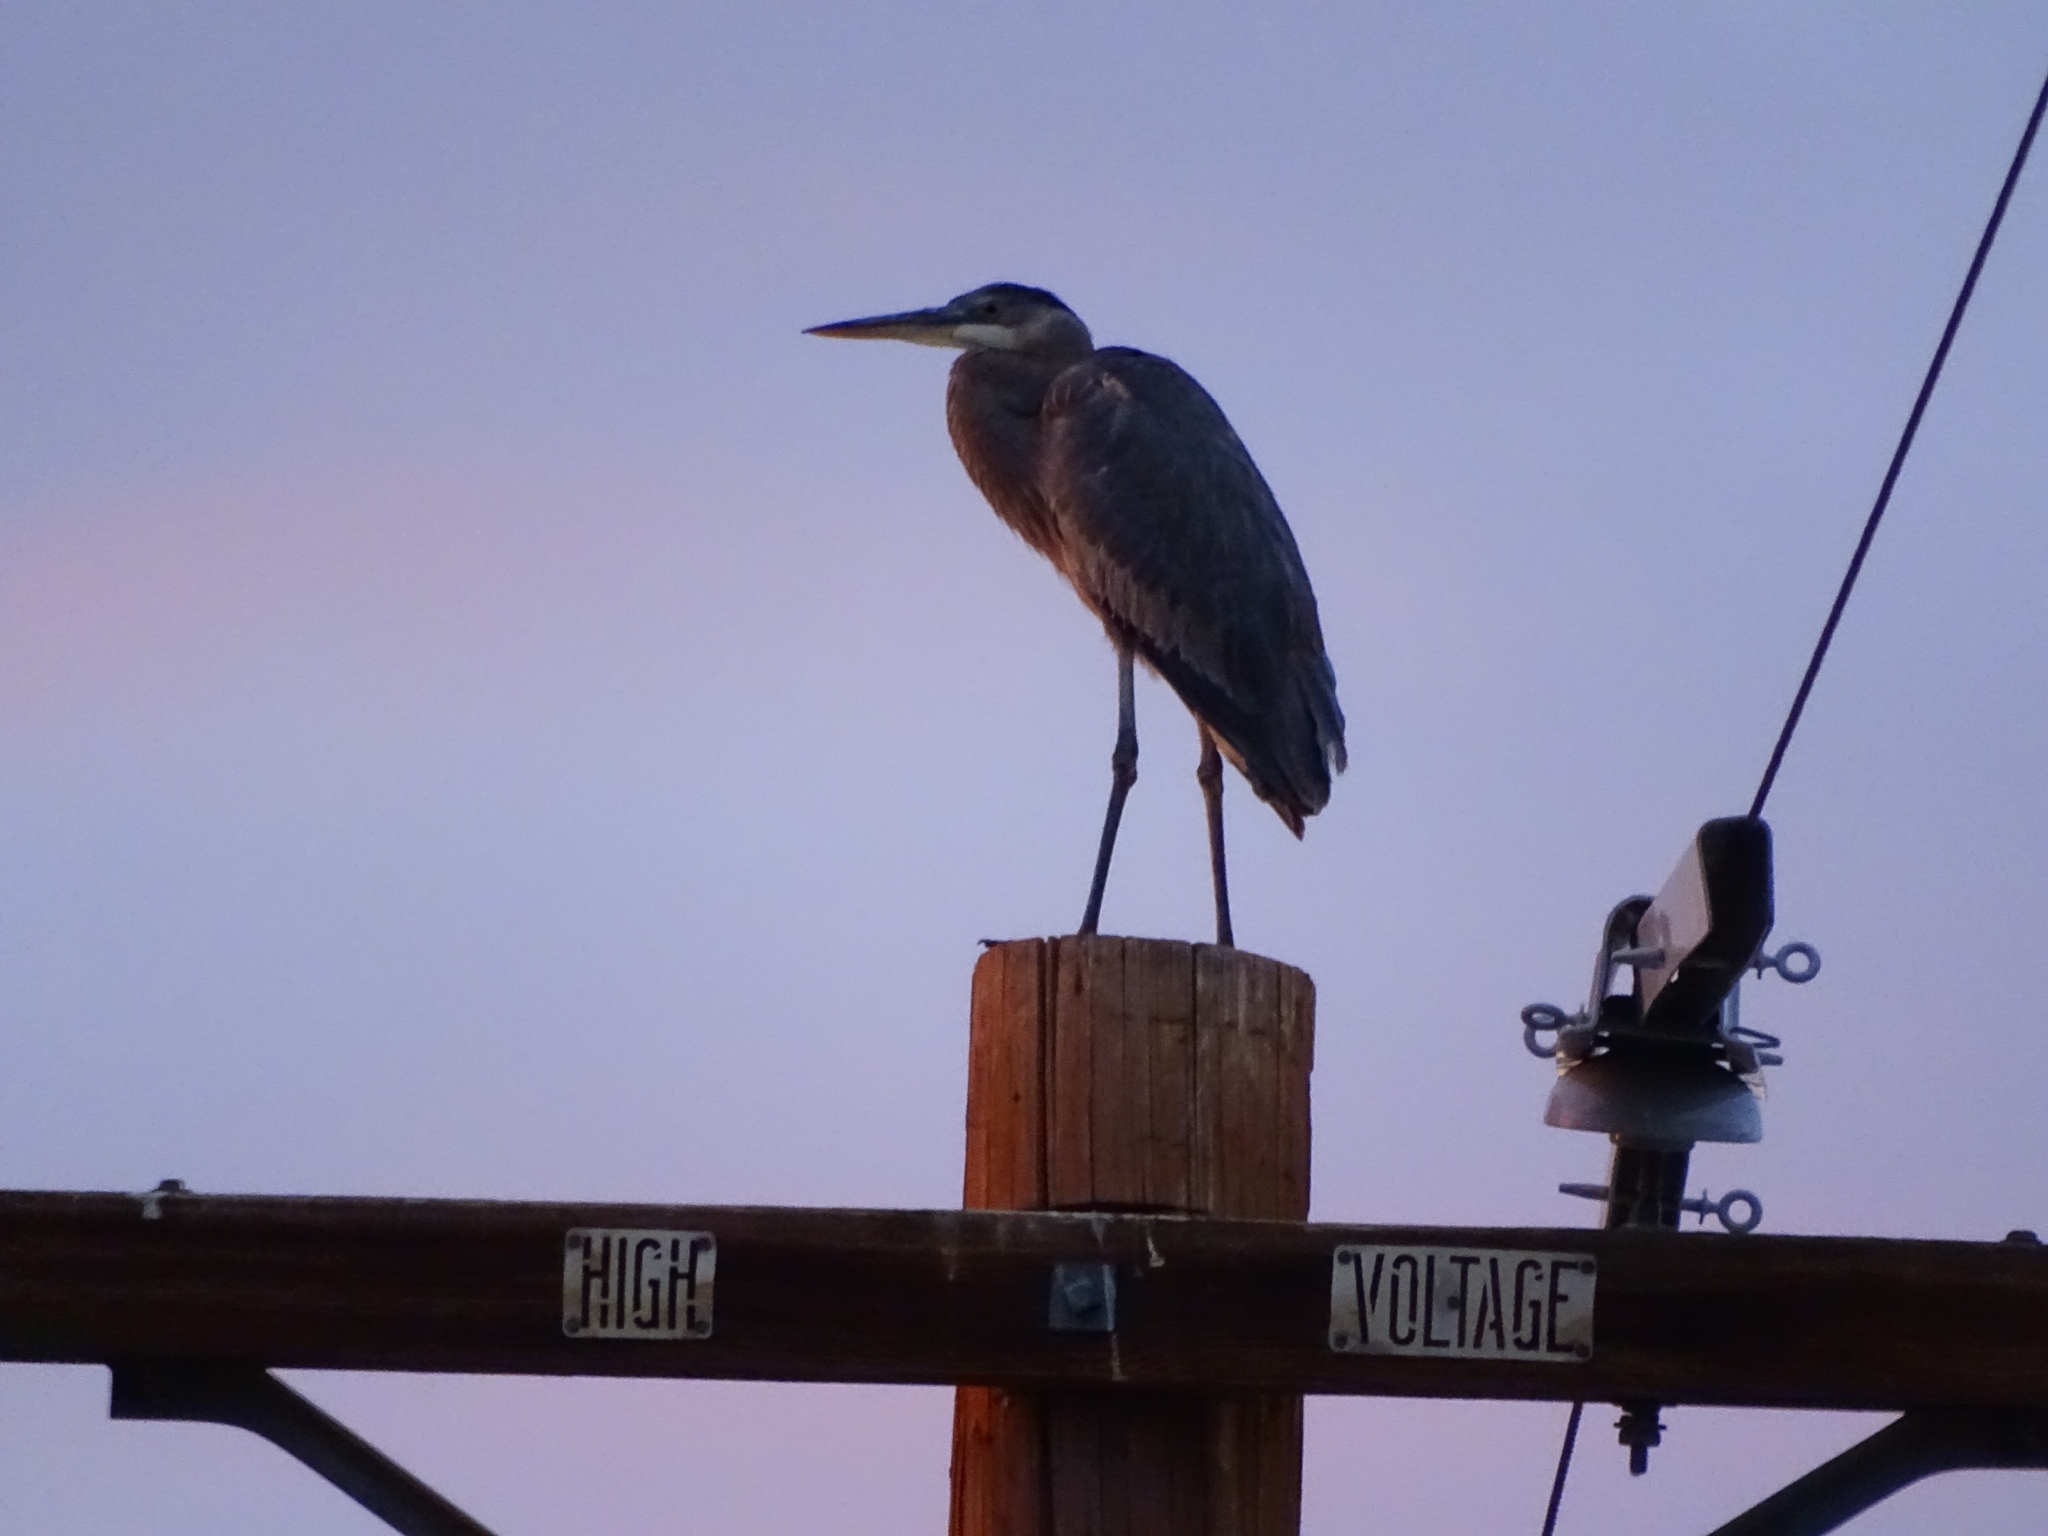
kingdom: Animalia
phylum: Chordata
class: Aves
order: Pelecaniformes
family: Ardeidae
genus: Ardea
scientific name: Ardea herodias
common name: Great blue heron
